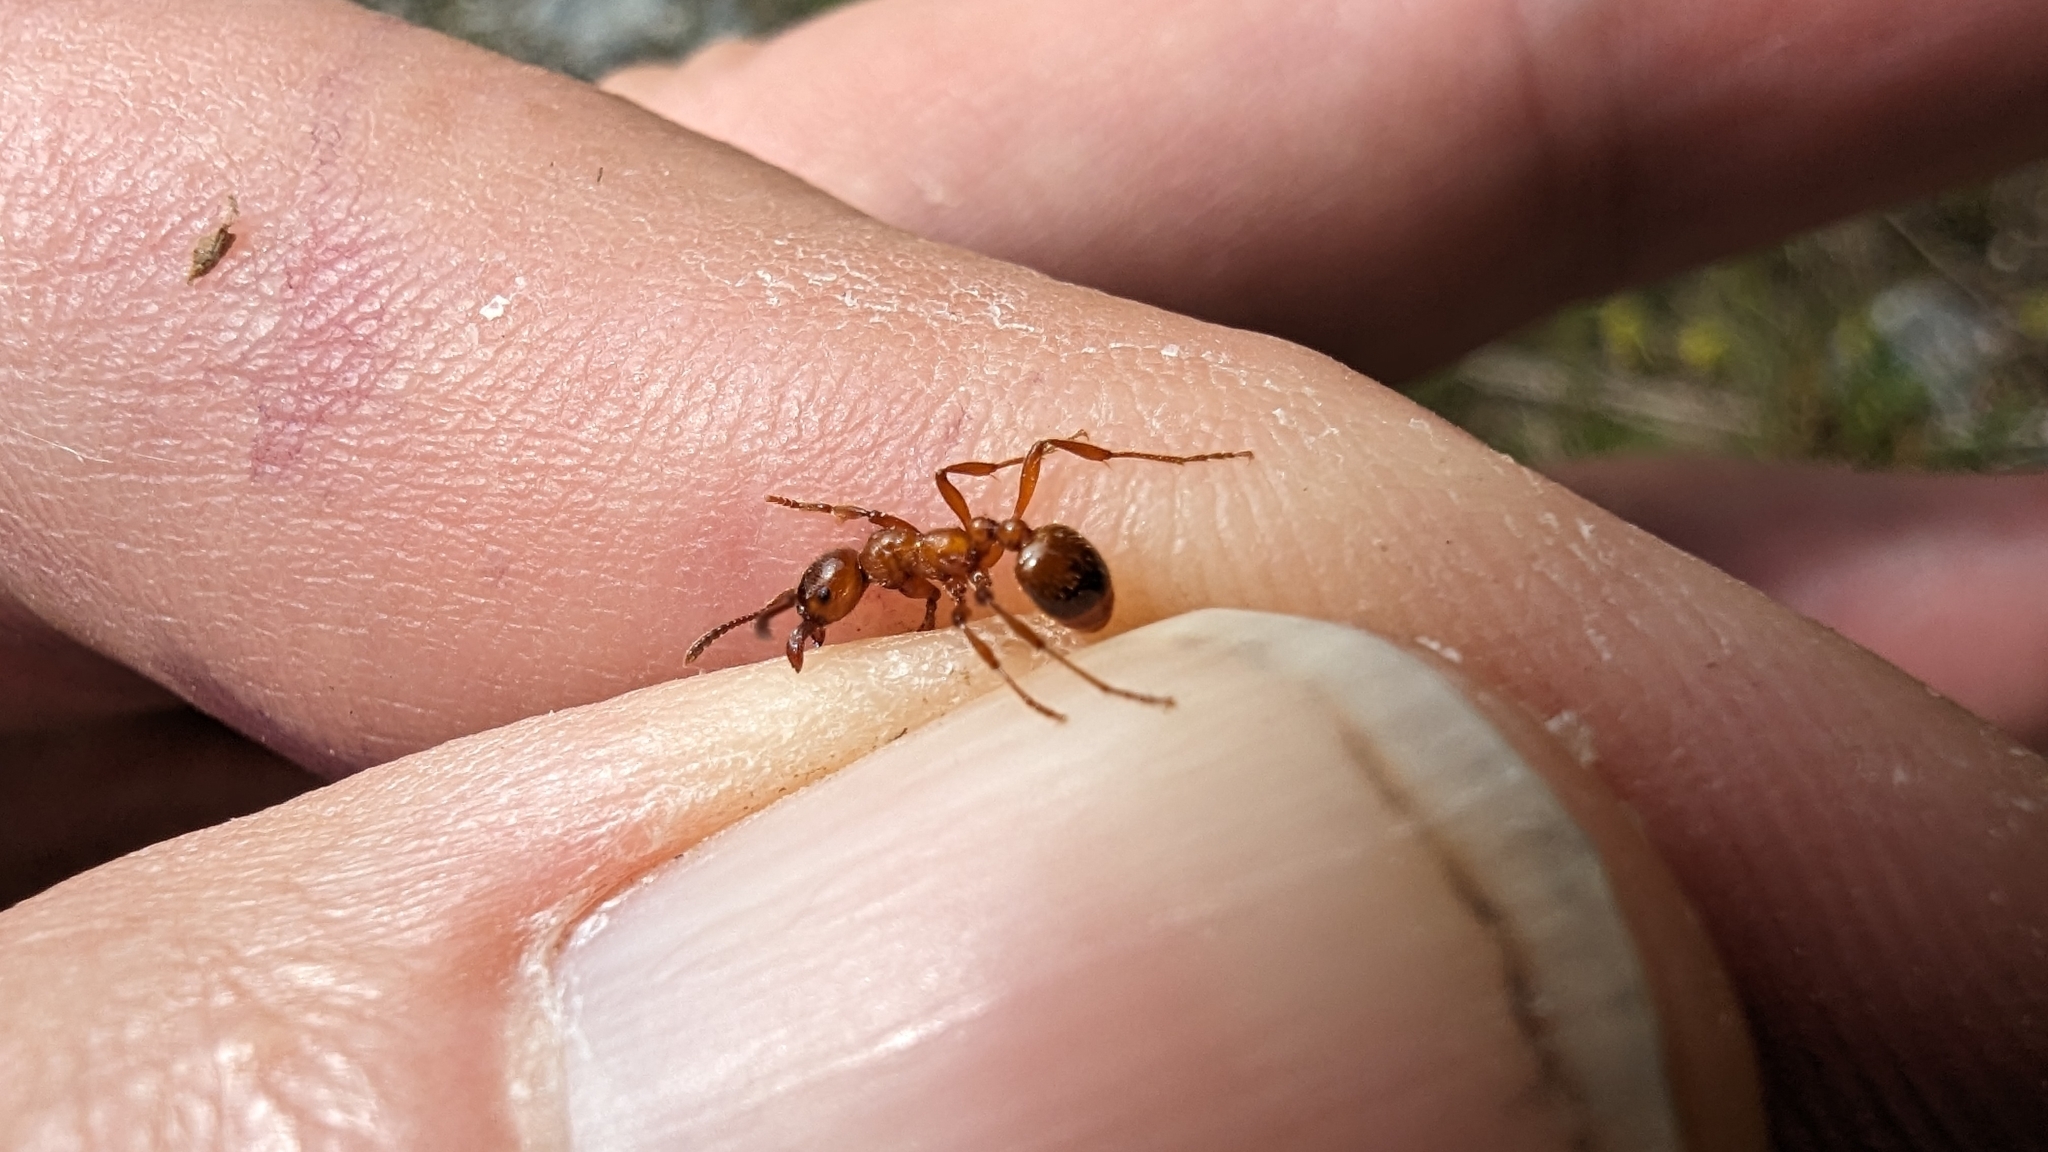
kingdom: Animalia
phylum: Arthropoda
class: Insecta
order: Hymenoptera
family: Formicidae
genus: Manica
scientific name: Manica rubida
